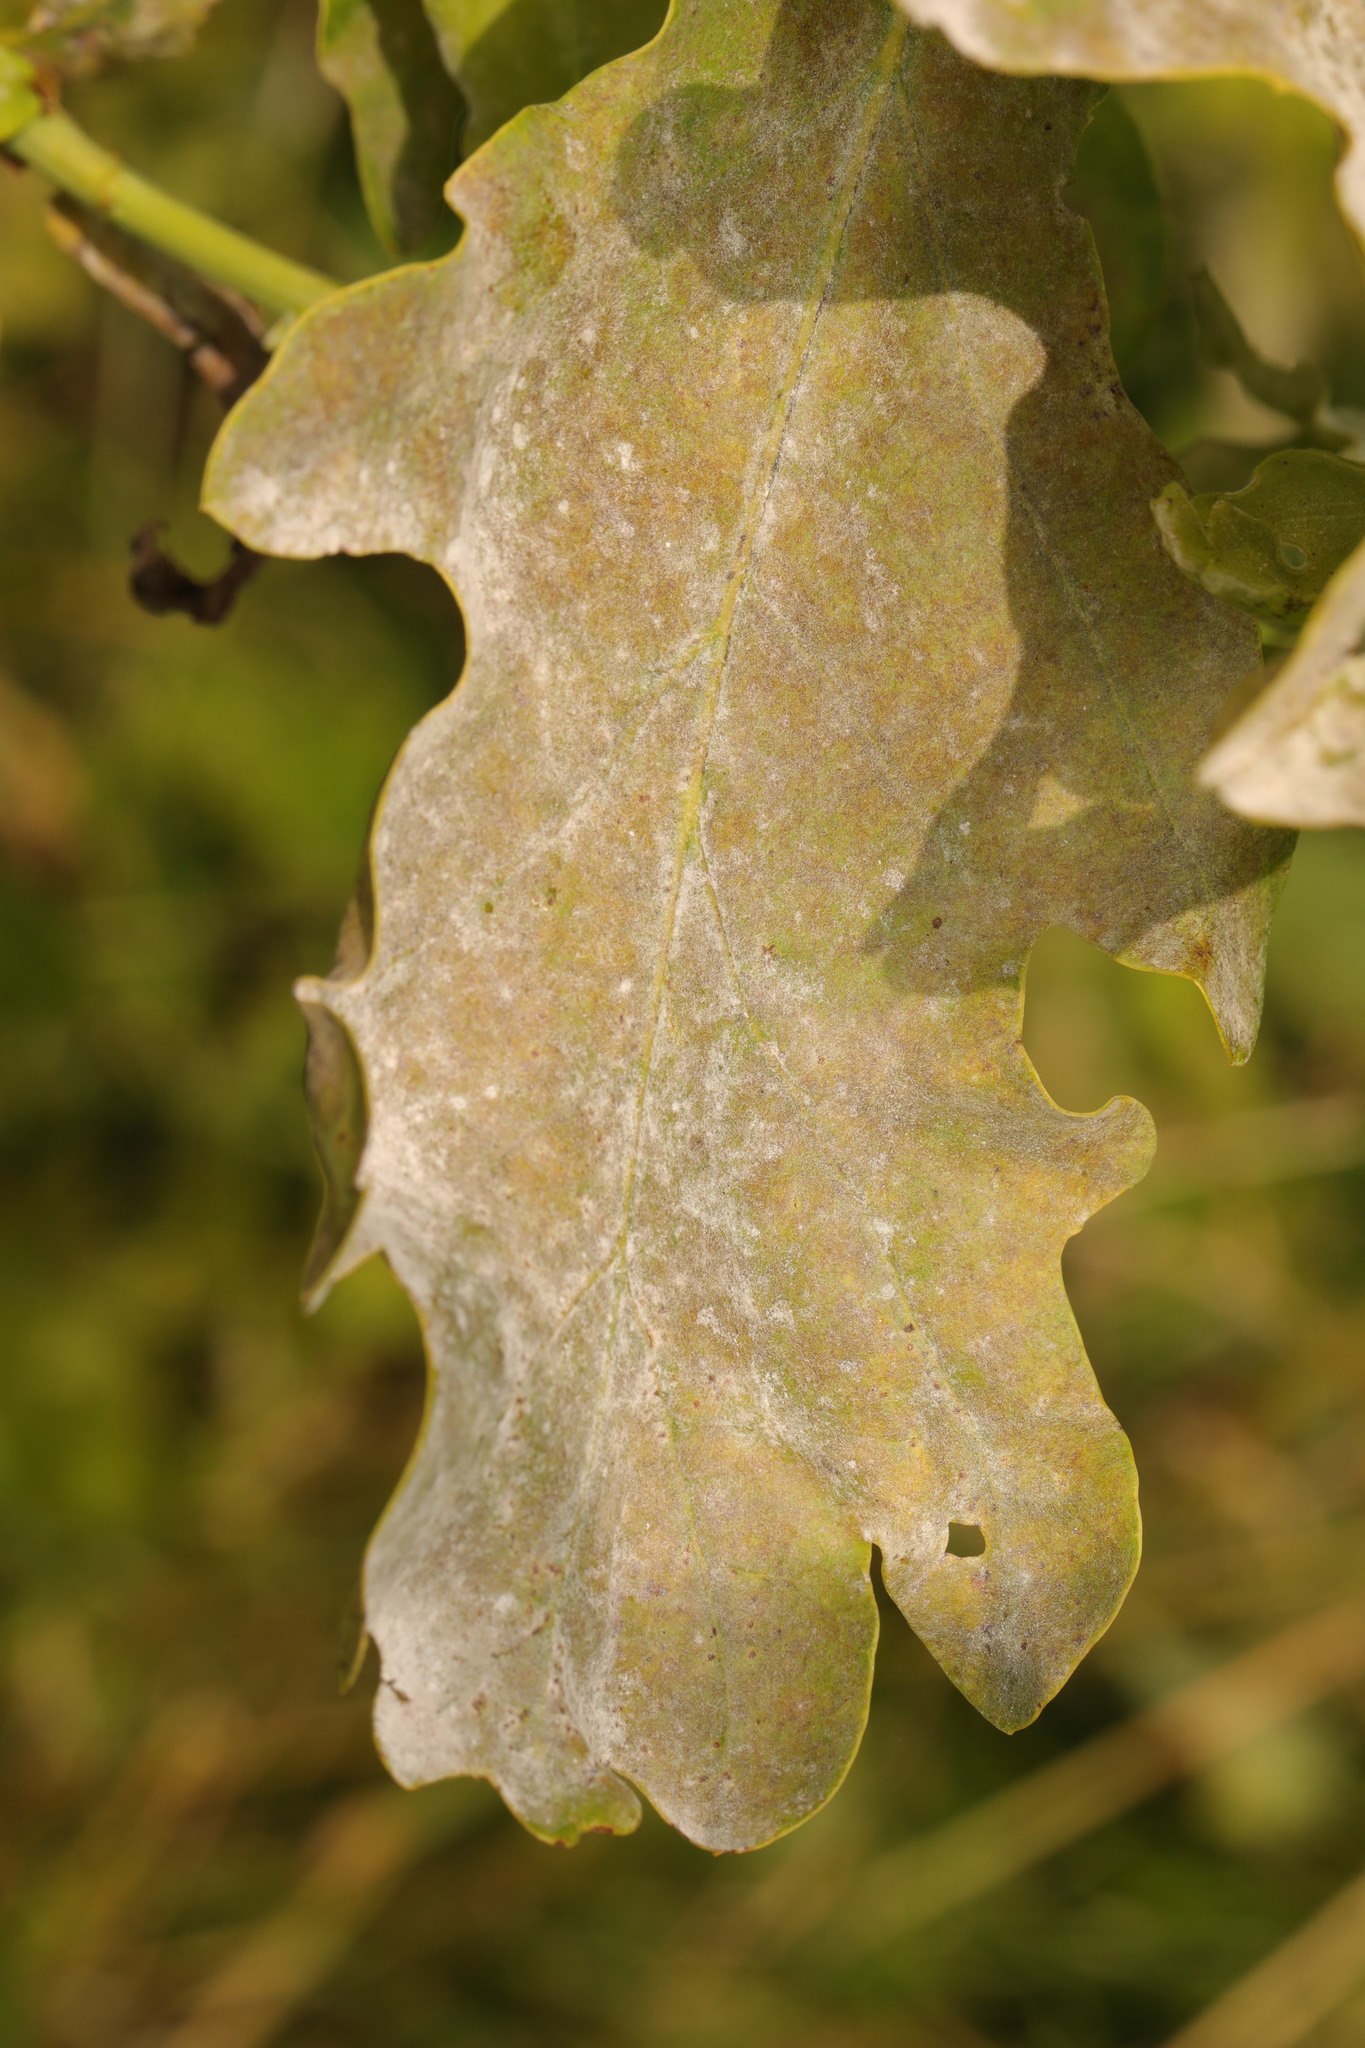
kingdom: Fungi
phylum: Ascomycota
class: Leotiomycetes
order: Helotiales
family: Erysiphaceae
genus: Erysiphe
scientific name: Erysiphe alphitoides
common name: Oak mildew
